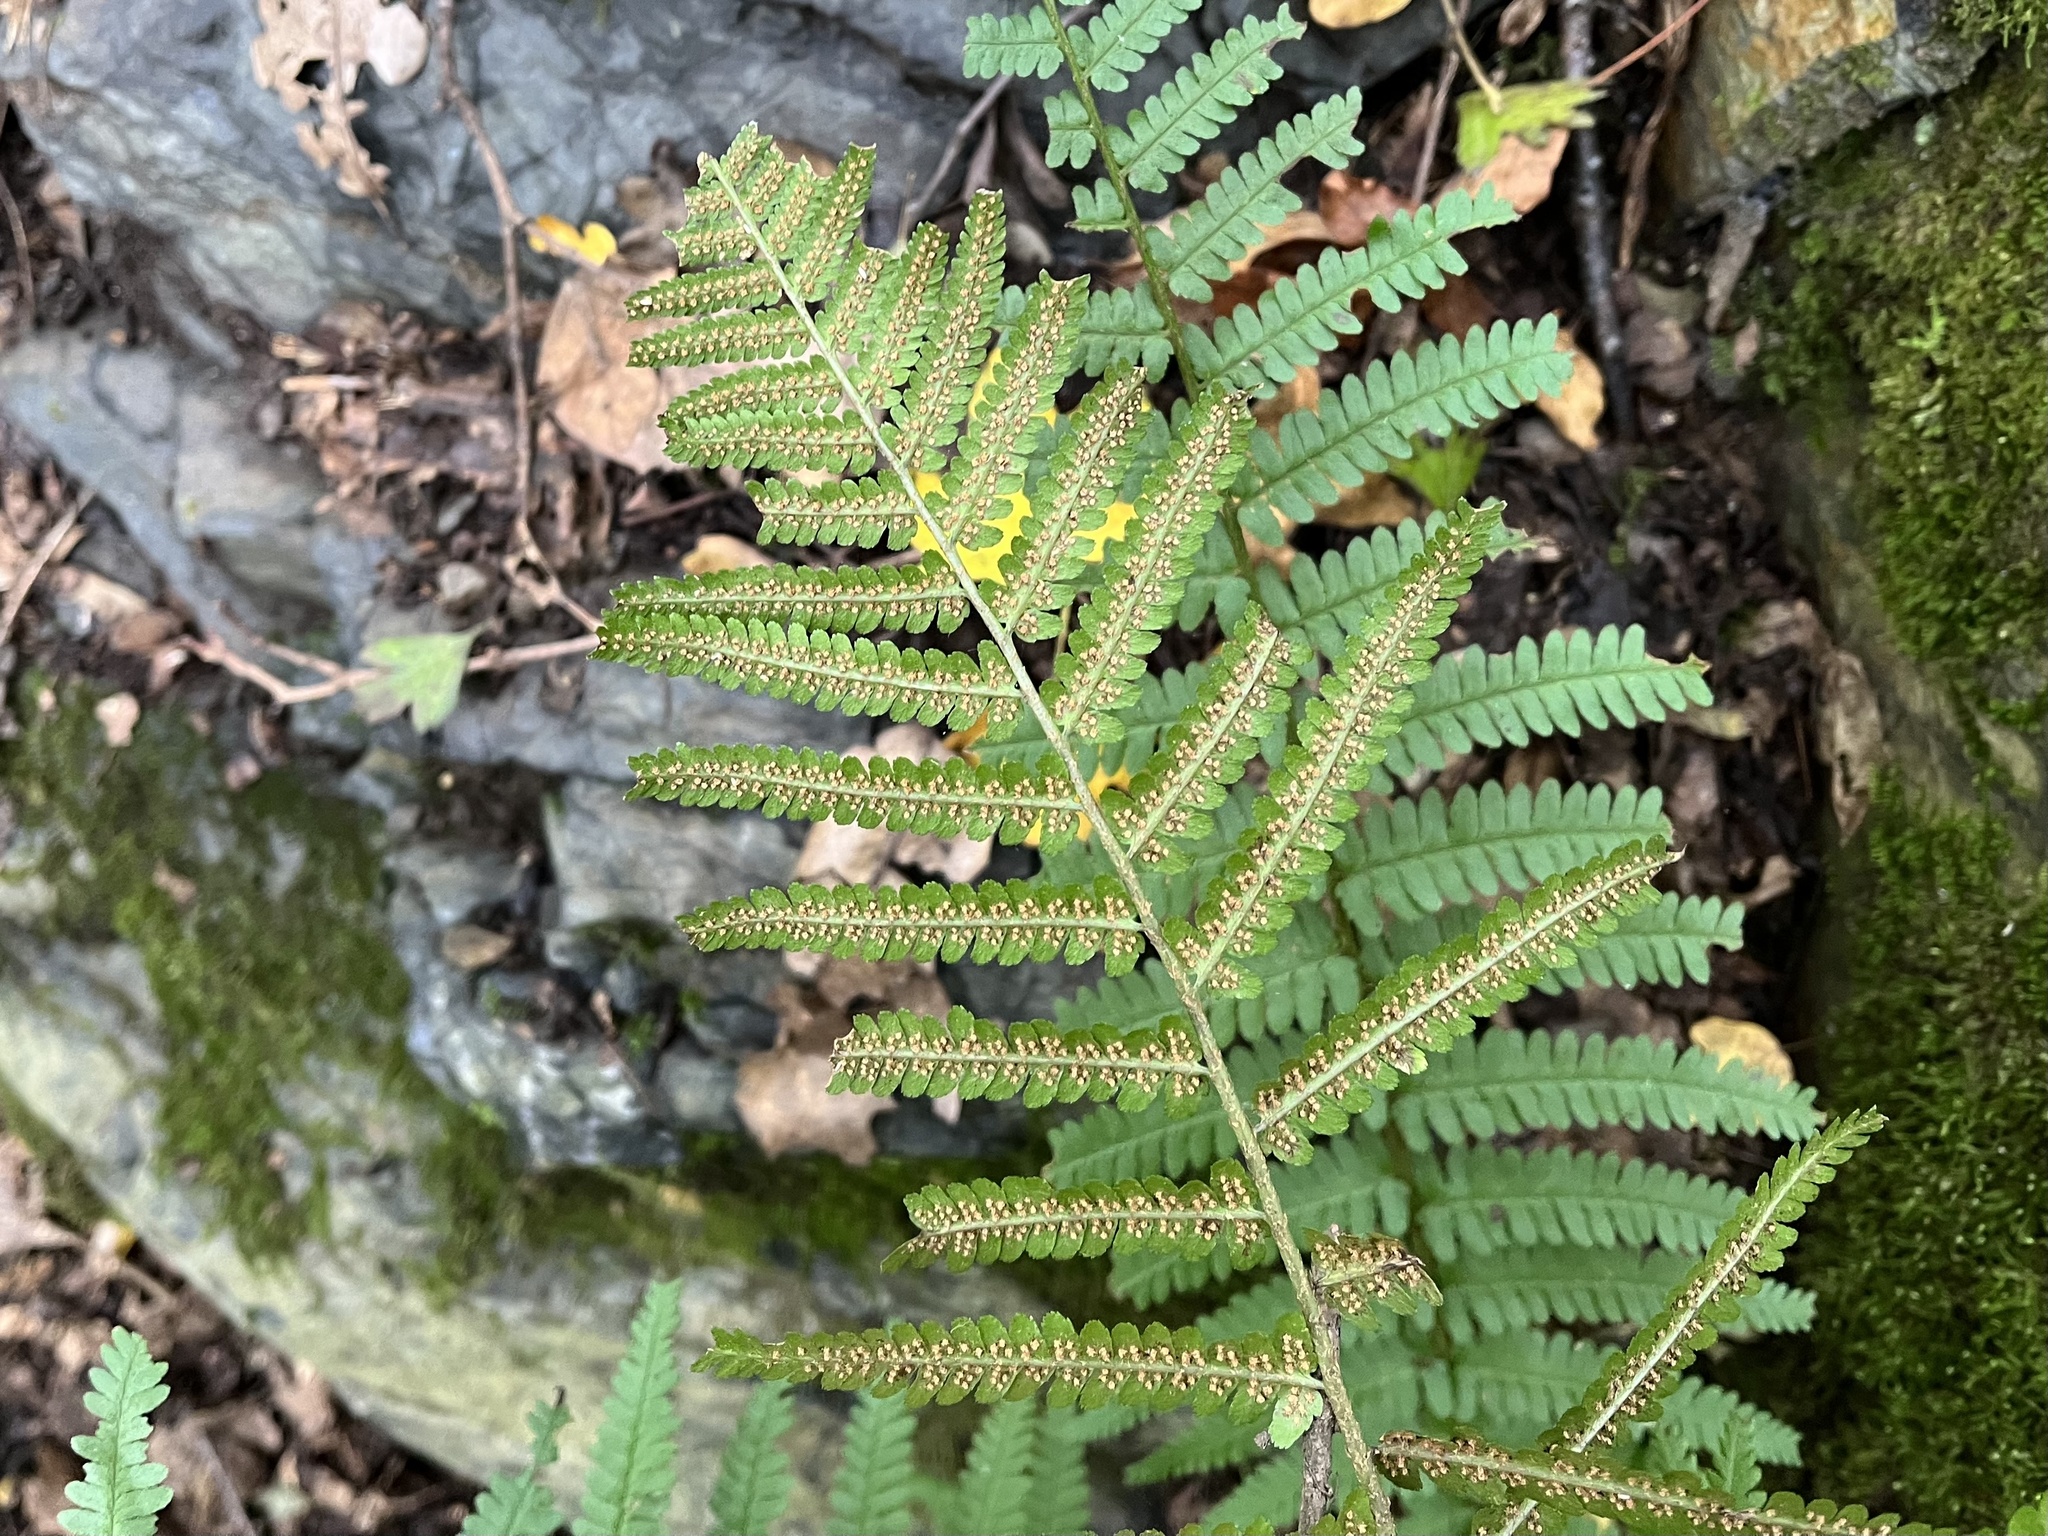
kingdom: Plantae
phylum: Tracheophyta
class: Polypodiopsida
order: Polypodiales
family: Dryopteridaceae
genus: Dryopteris
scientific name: Dryopteris filix-mas
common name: Male fern
